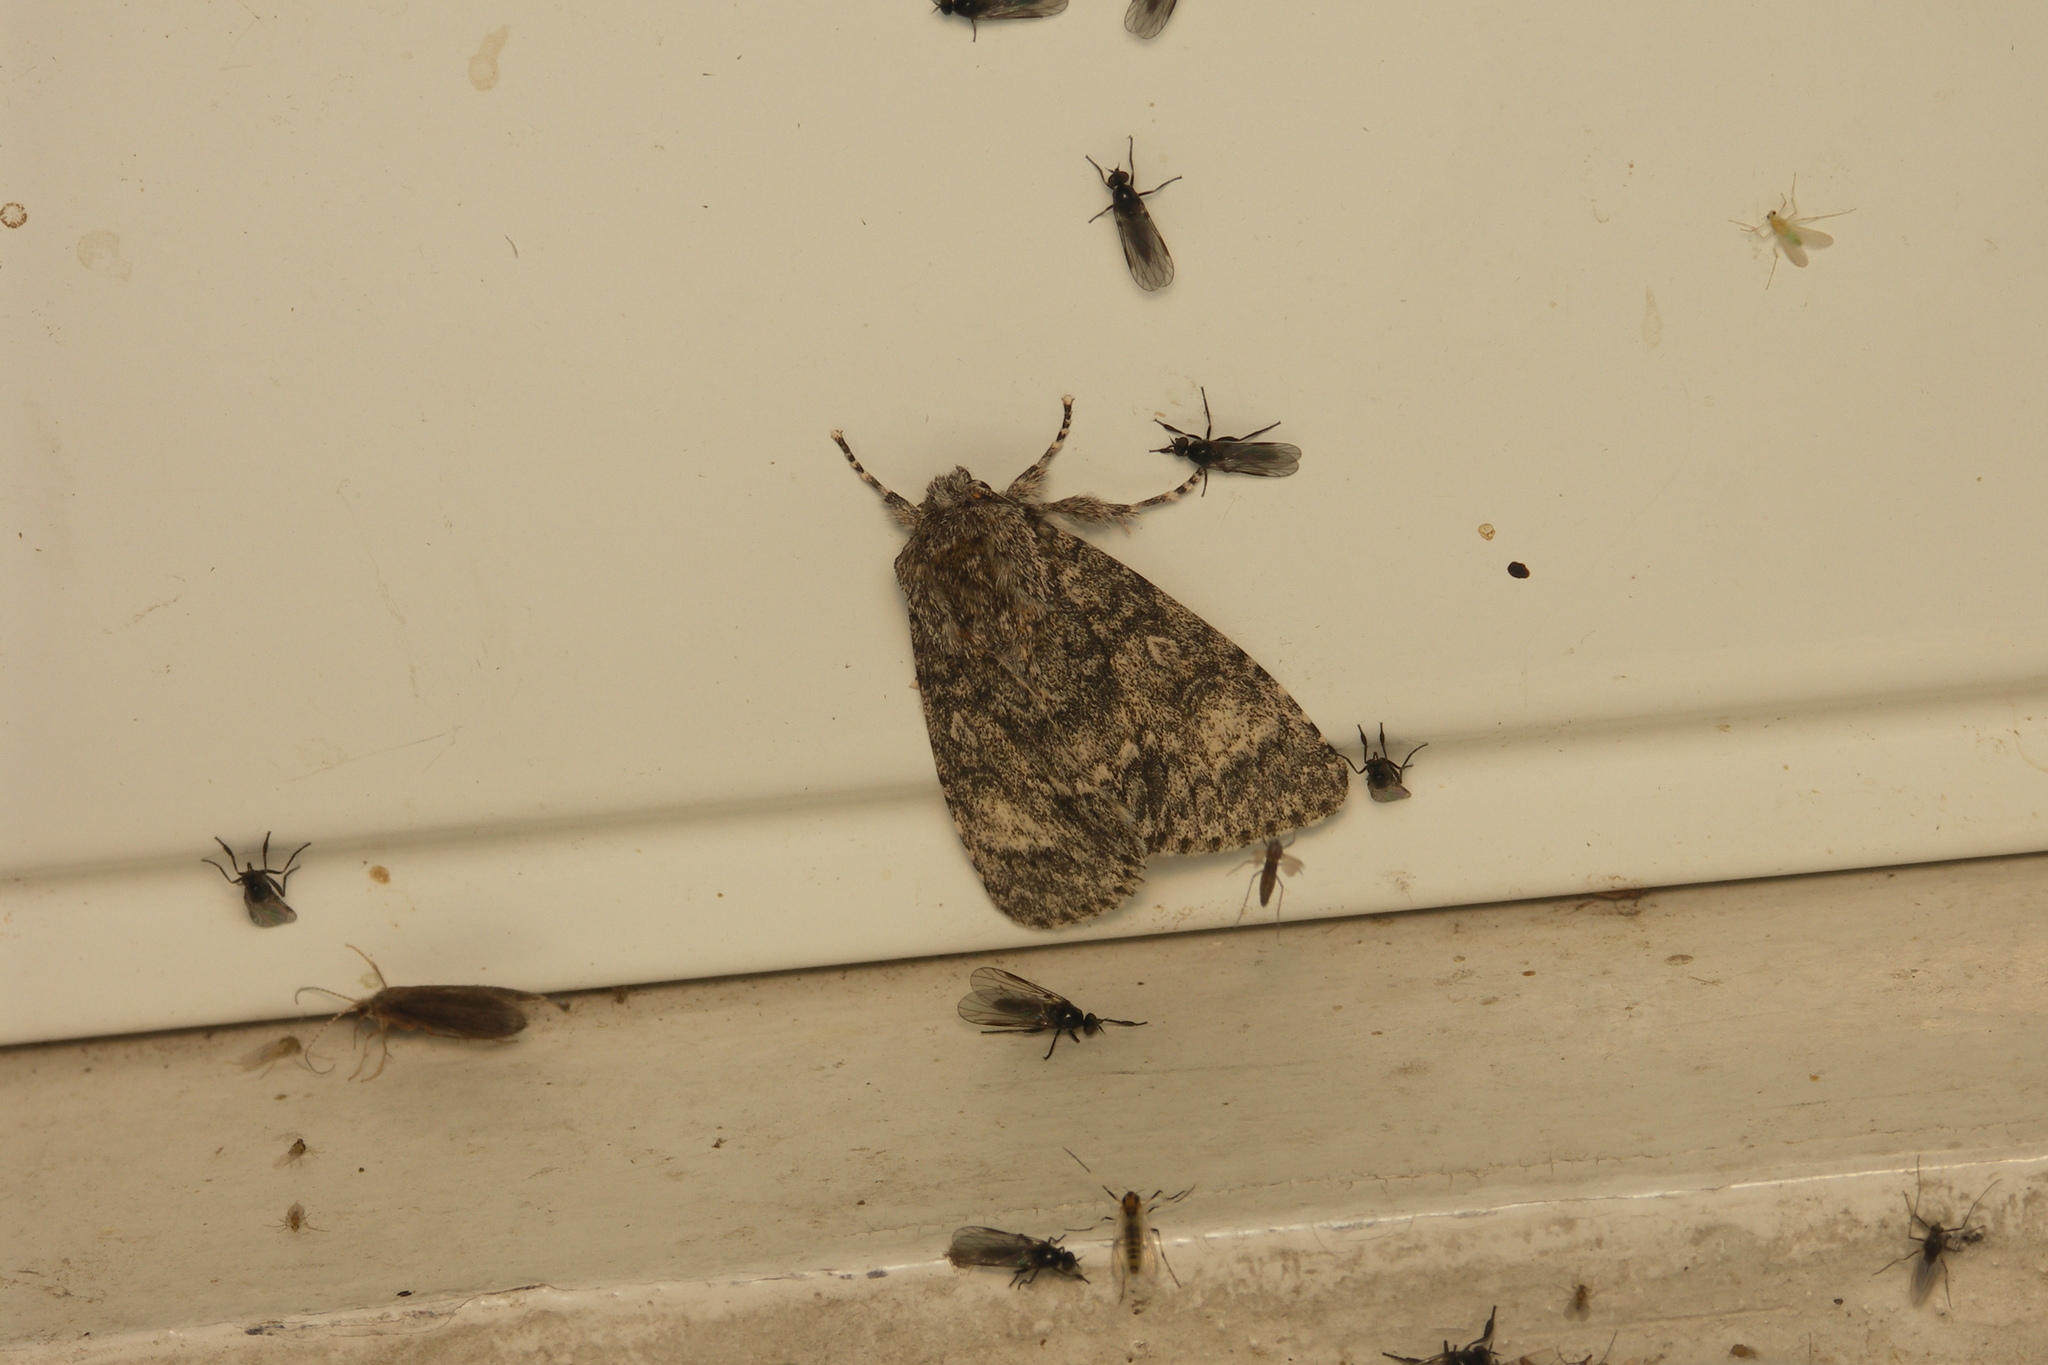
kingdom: Animalia
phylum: Arthropoda
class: Insecta
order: Lepidoptera
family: Noctuidae
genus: Acronicta
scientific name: Acronicta megacephala
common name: Poplar grey
